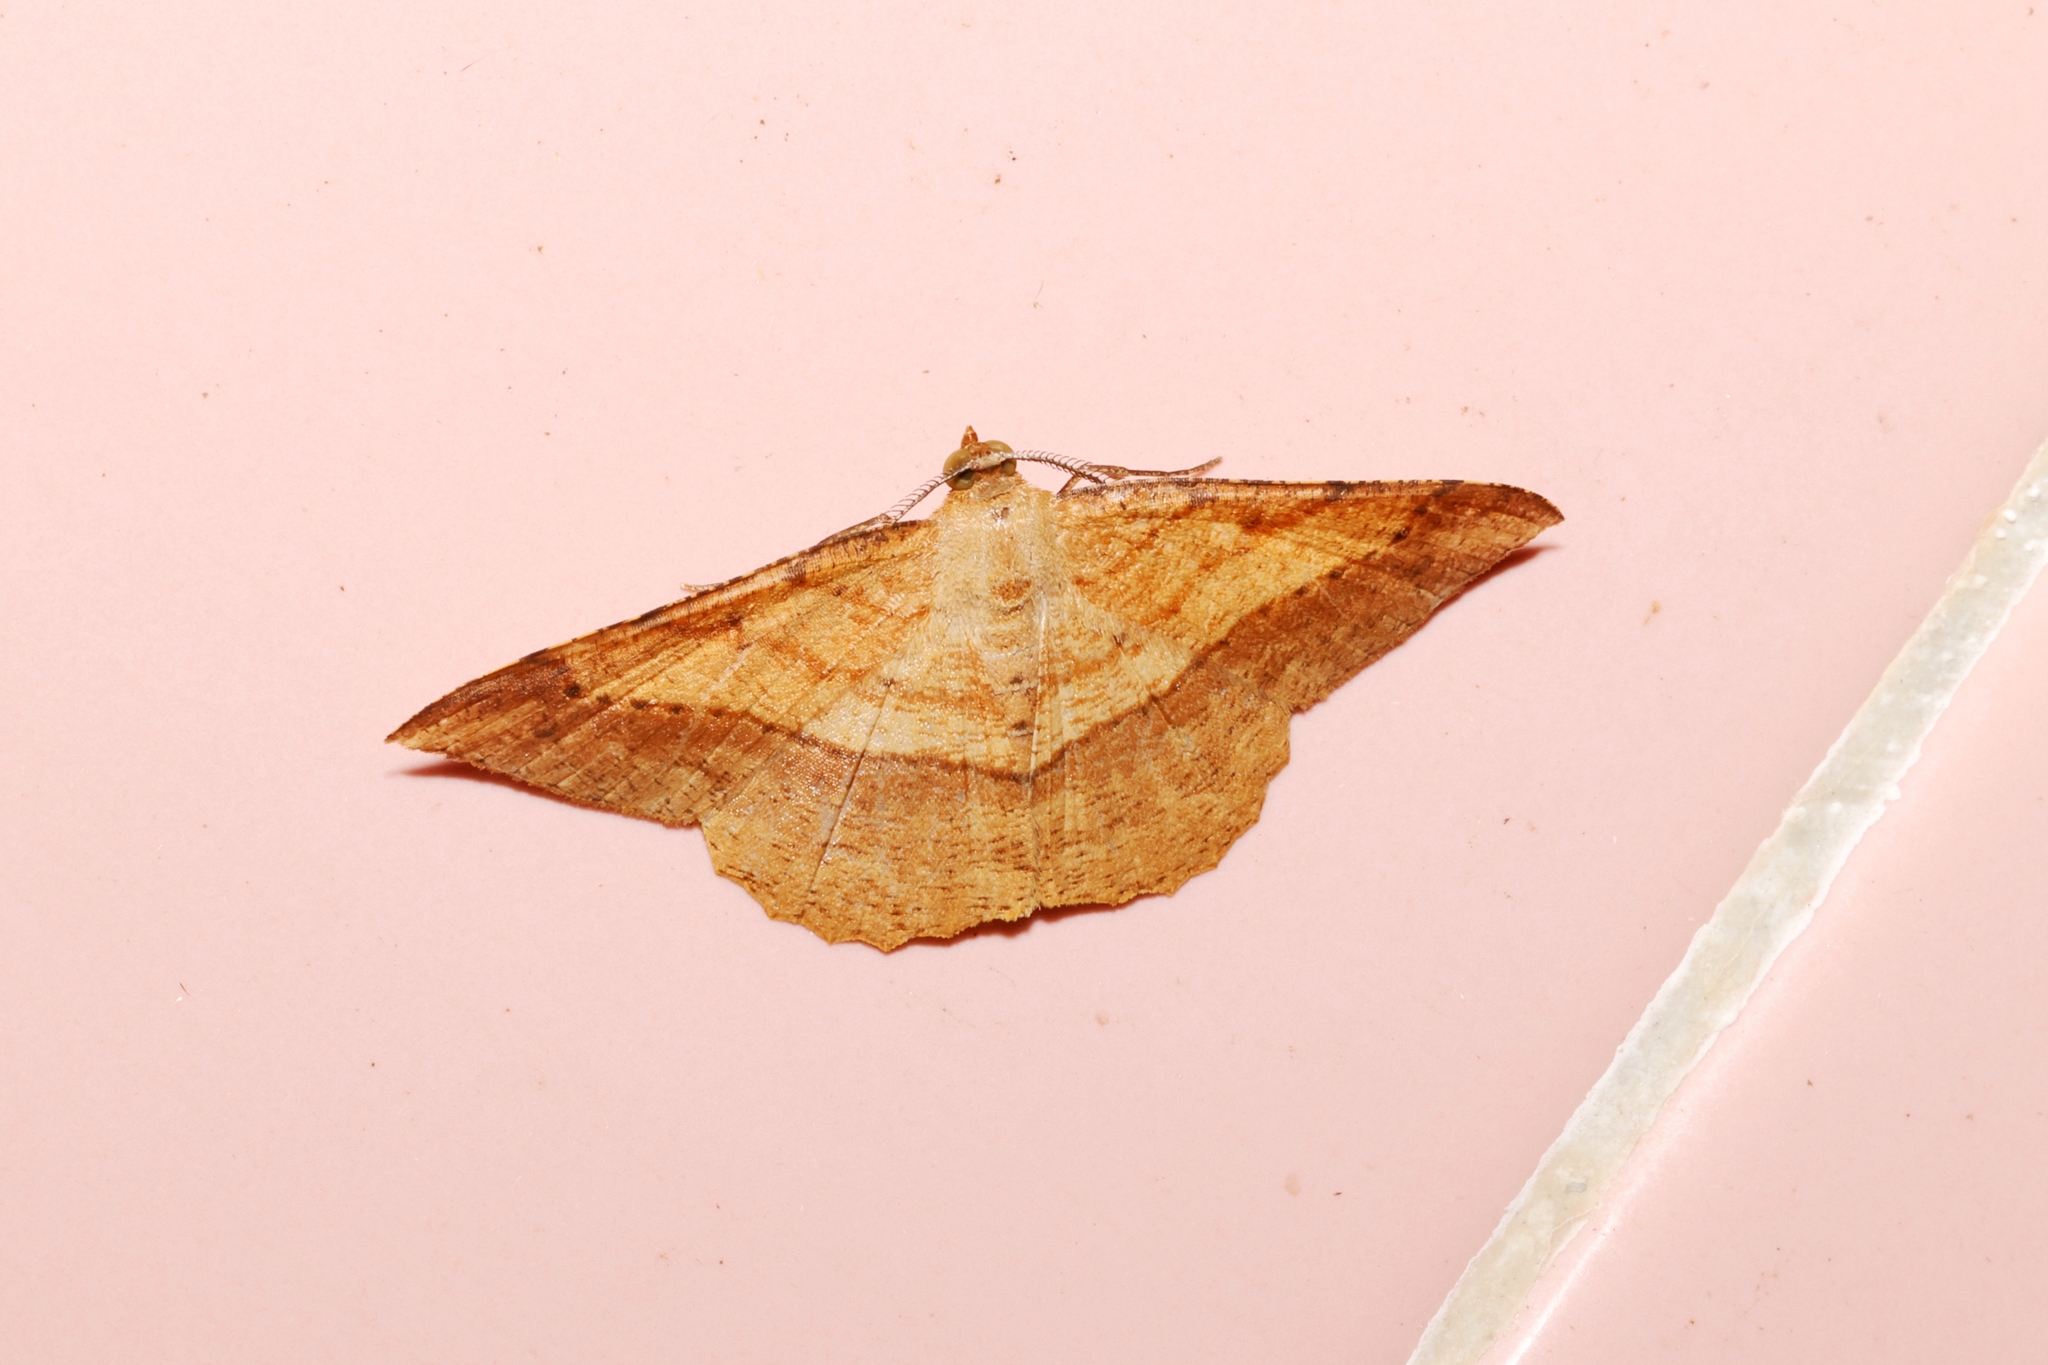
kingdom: Animalia
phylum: Arthropoda
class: Insecta
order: Lepidoptera
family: Geometridae
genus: Pseudonadagara
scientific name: Pseudonadagara semicolor
